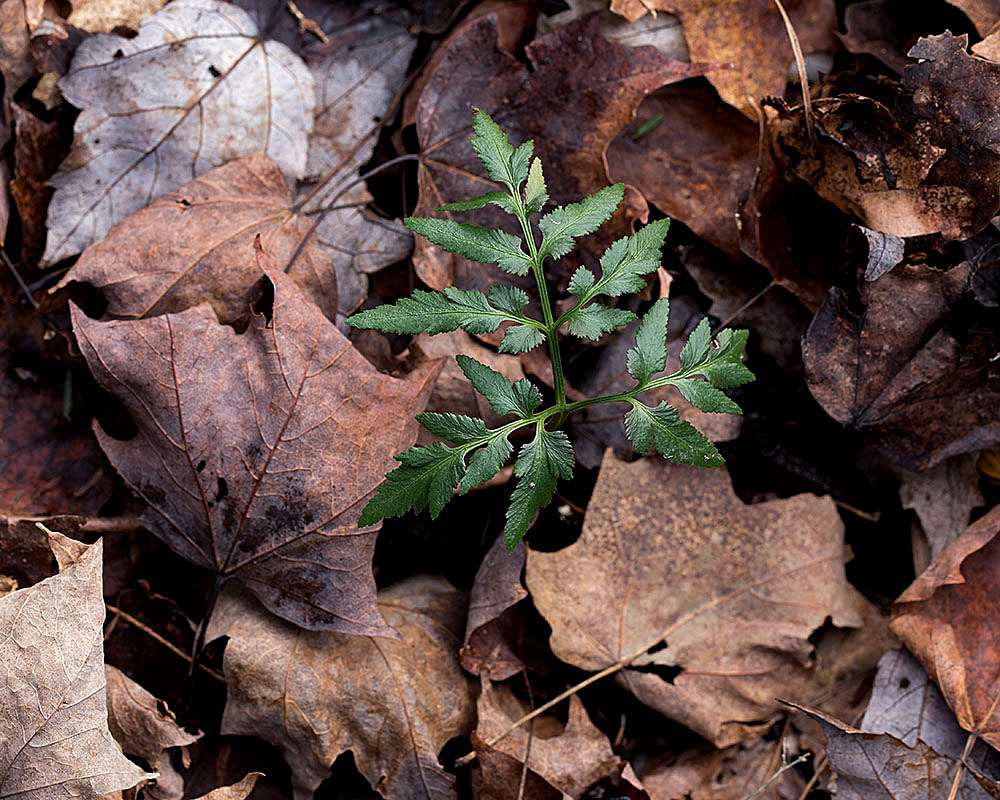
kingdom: Plantae
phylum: Tracheophyta
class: Polypodiopsida
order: Ophioglossales
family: Ophioglossaceae
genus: Sceptridium
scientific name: Sceptridium dissectum
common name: Cut-leaved grapefern
